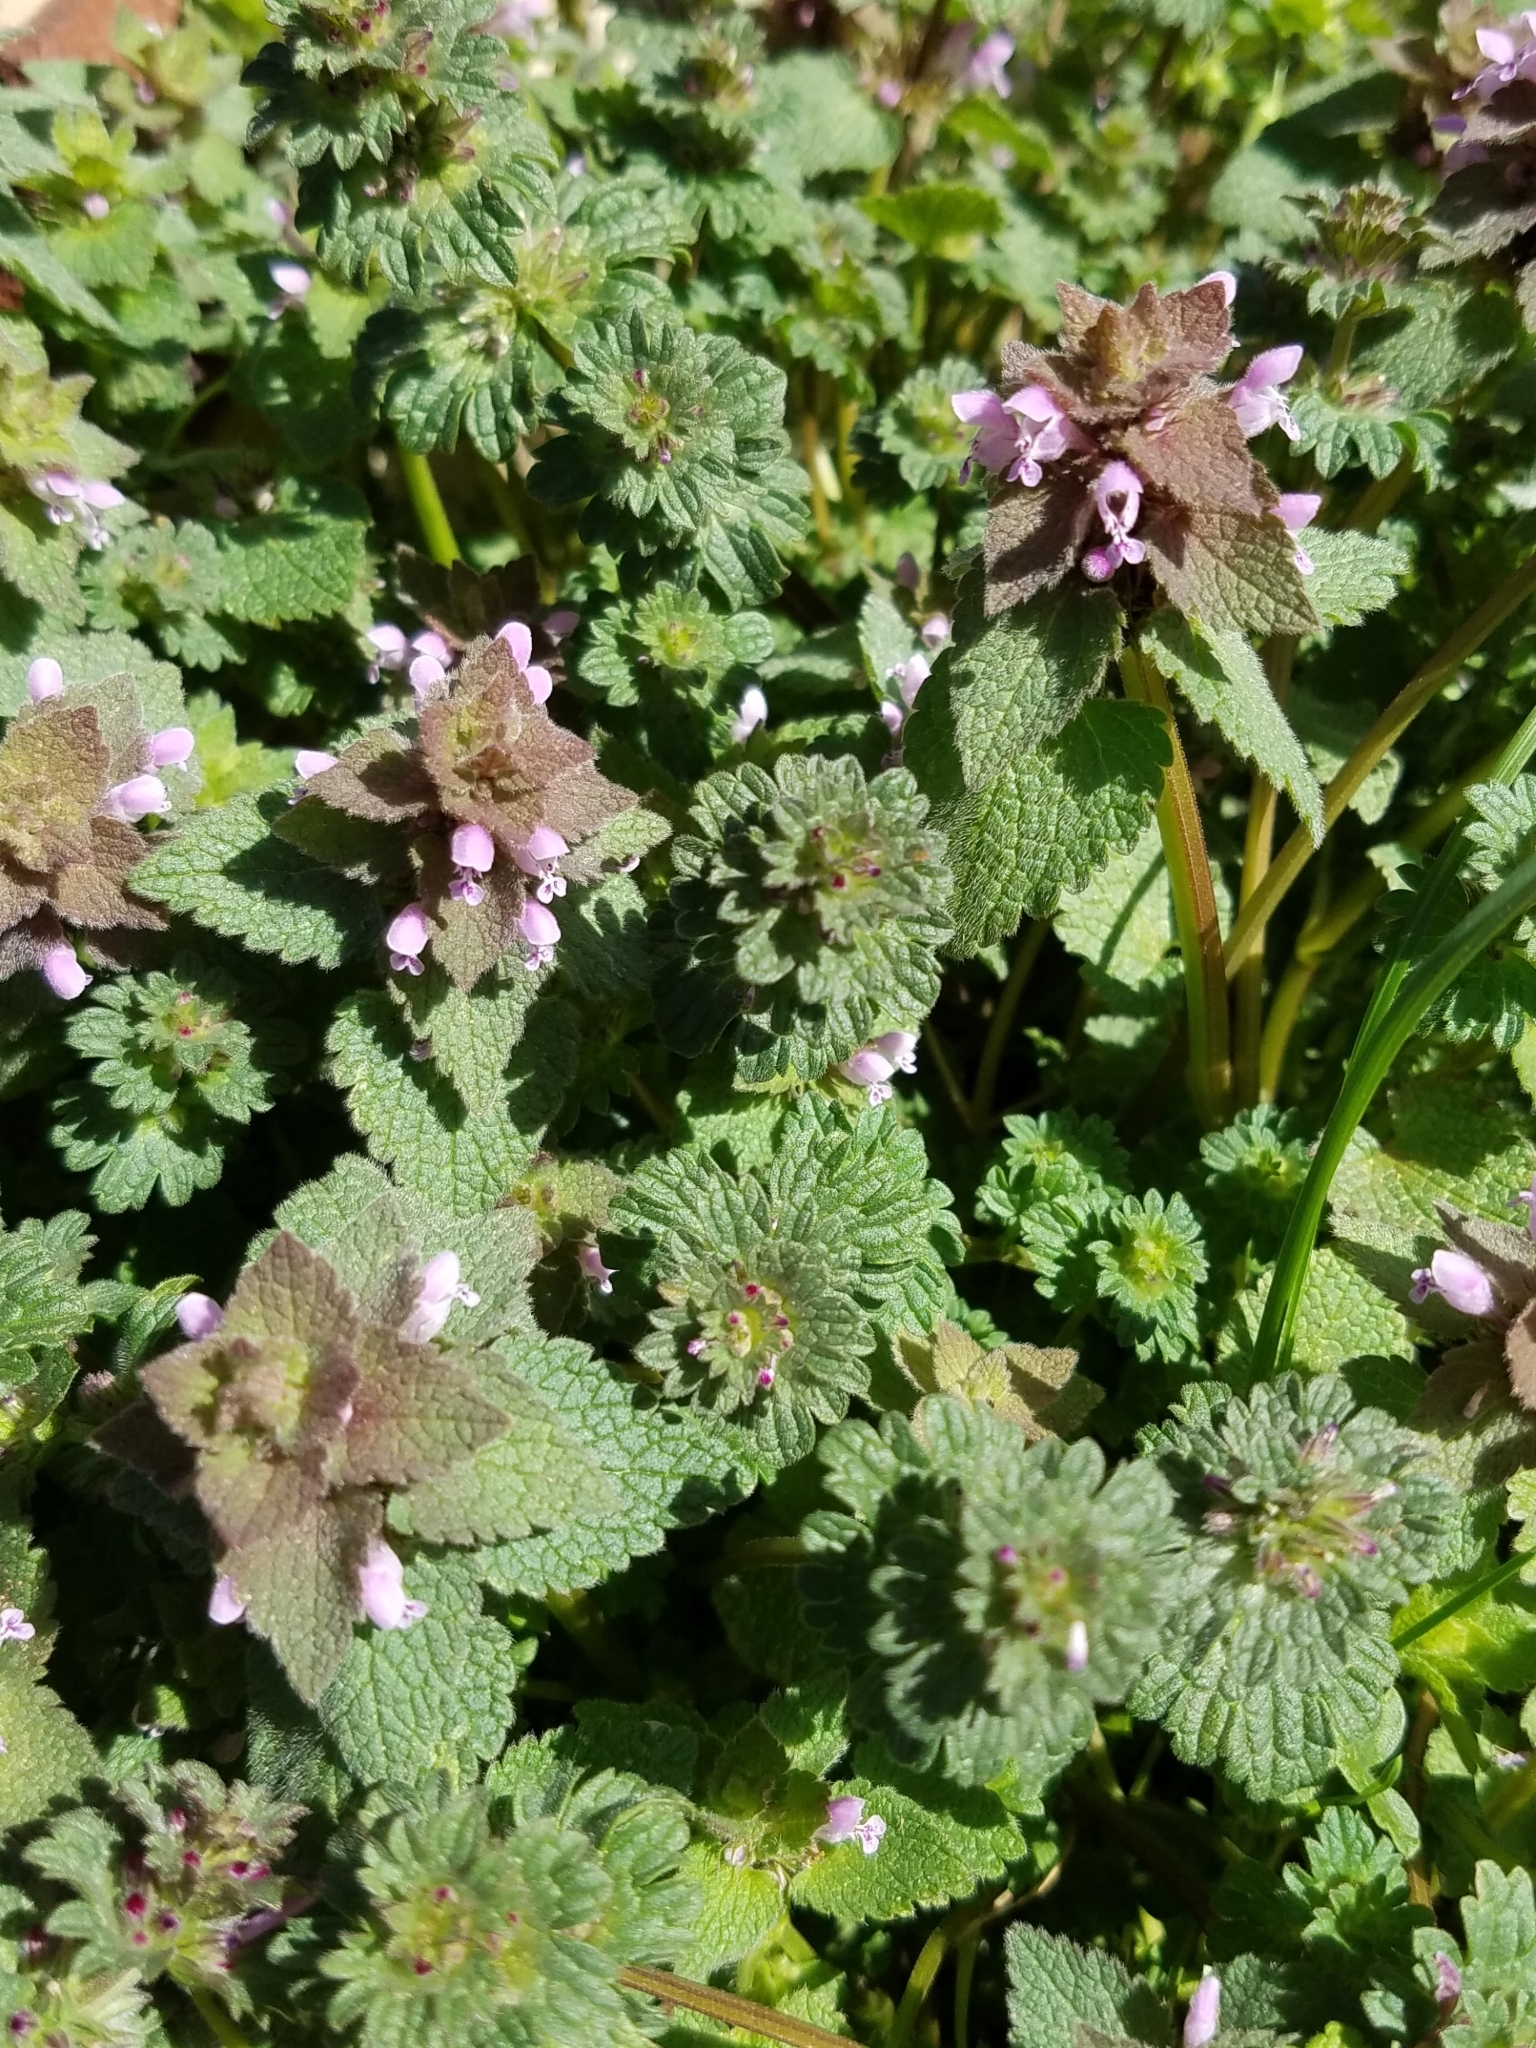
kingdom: Plantae
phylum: Tracheophyta
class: Magnoliopsida
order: Lamiales
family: Lamiaceae
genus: Lamium
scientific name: Lamium
